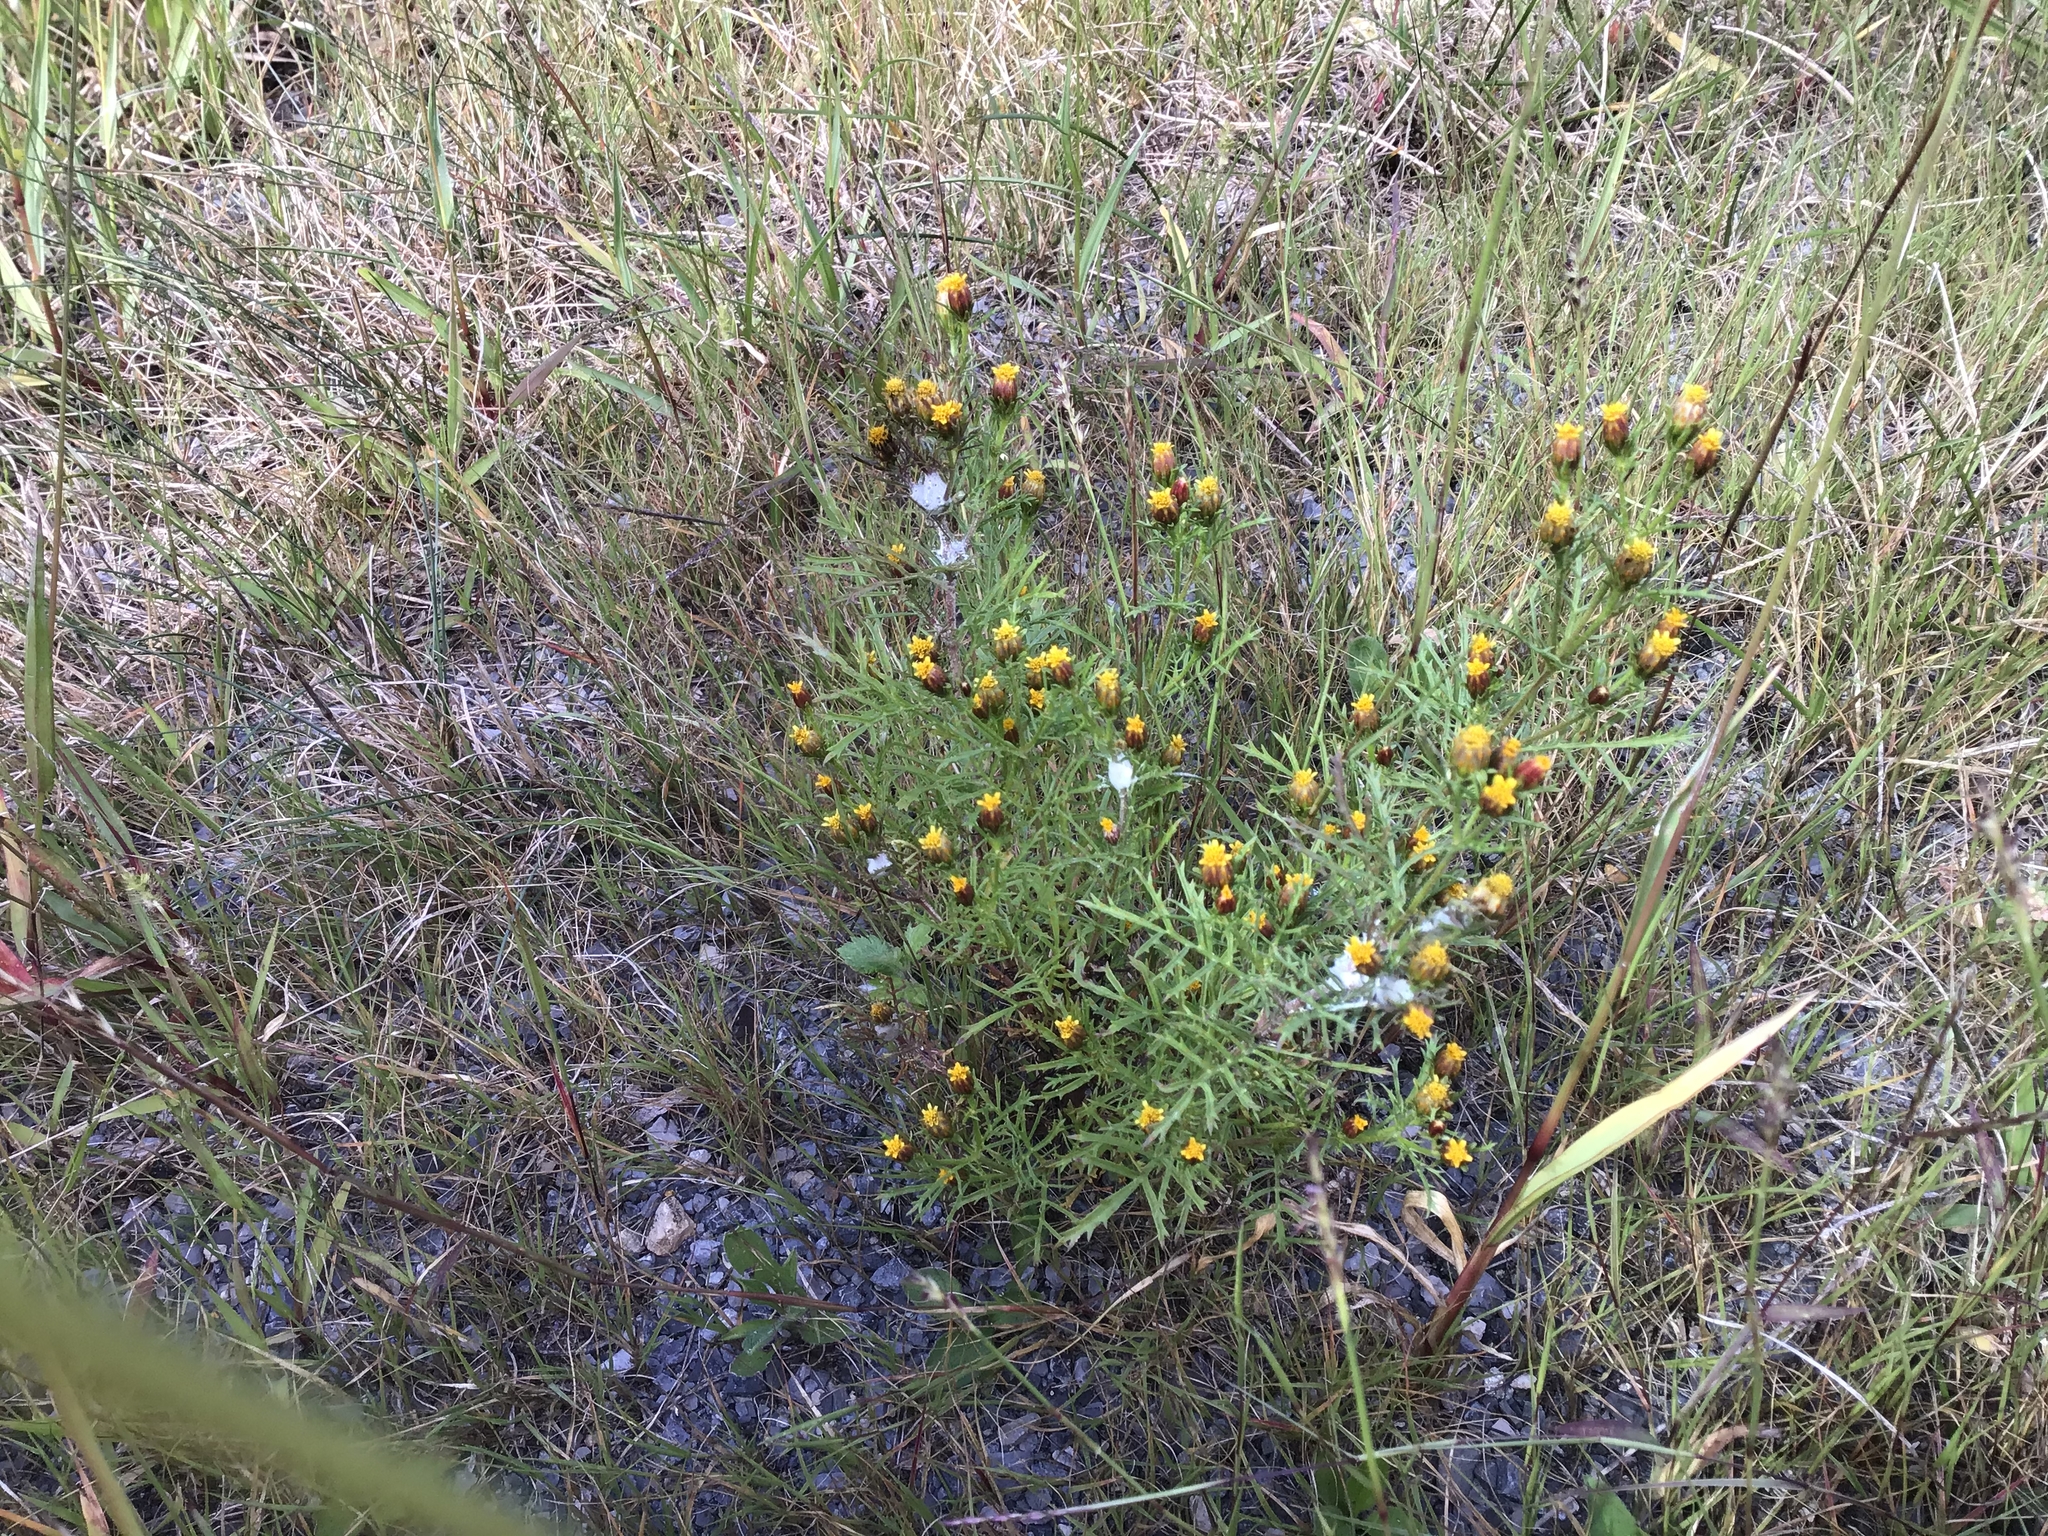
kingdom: Plantae
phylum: Tracheophyta
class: Magnoliopsida
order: Asterales
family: Asteraceae
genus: Dyssodia
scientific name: Dyssodia papposa
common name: Dogweed
